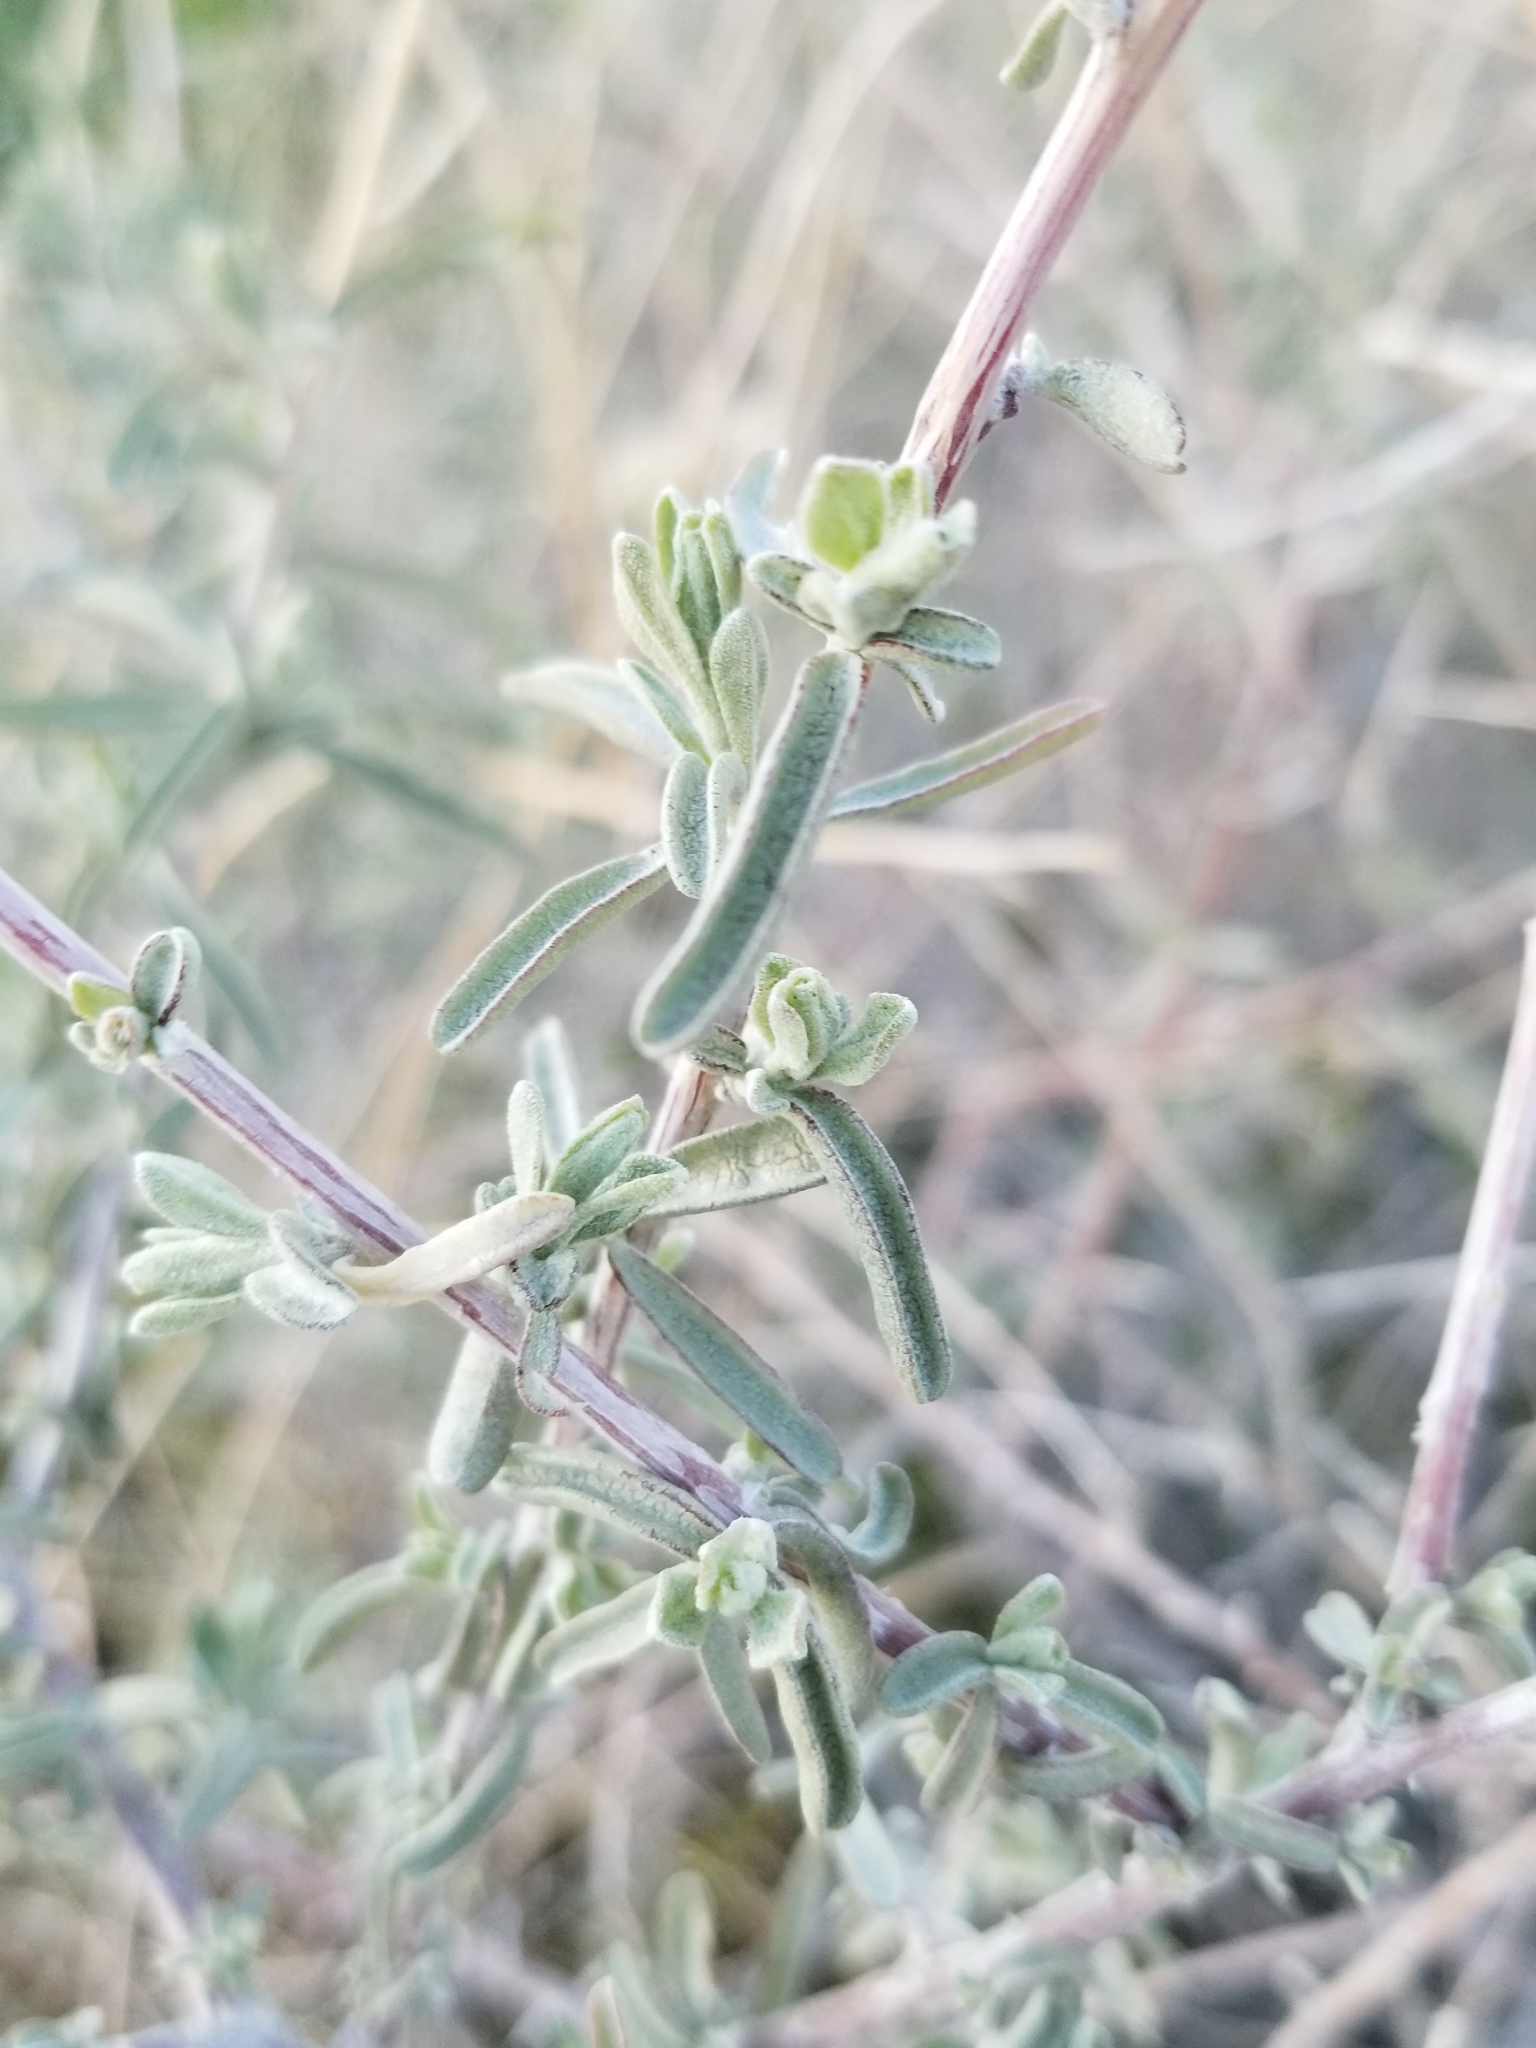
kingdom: Plantae
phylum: Tracheophyta
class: Magnoliopsida
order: Caryophyllales
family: Amaranthaceae
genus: Atriplex
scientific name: Atriplex canescens
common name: Four-wing saltbush
